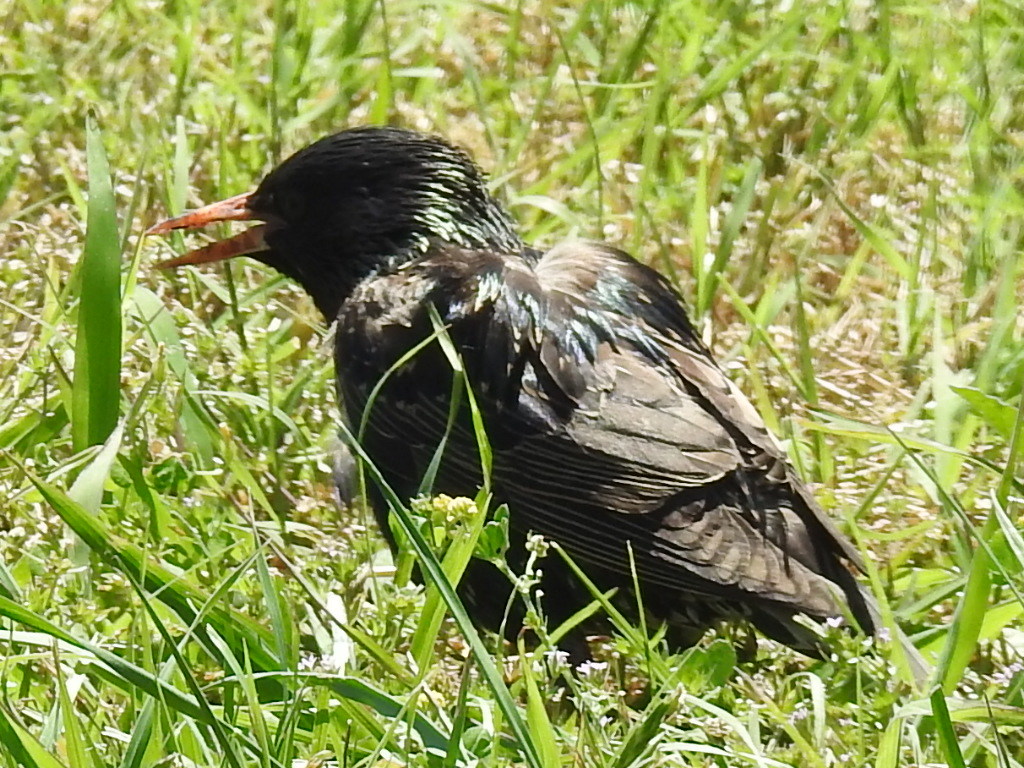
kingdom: Animalia
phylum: Chordata
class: Aves
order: Passeriformes
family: Sturnidae
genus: Sturnus
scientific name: Sturnus vulgaris
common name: Common starling
